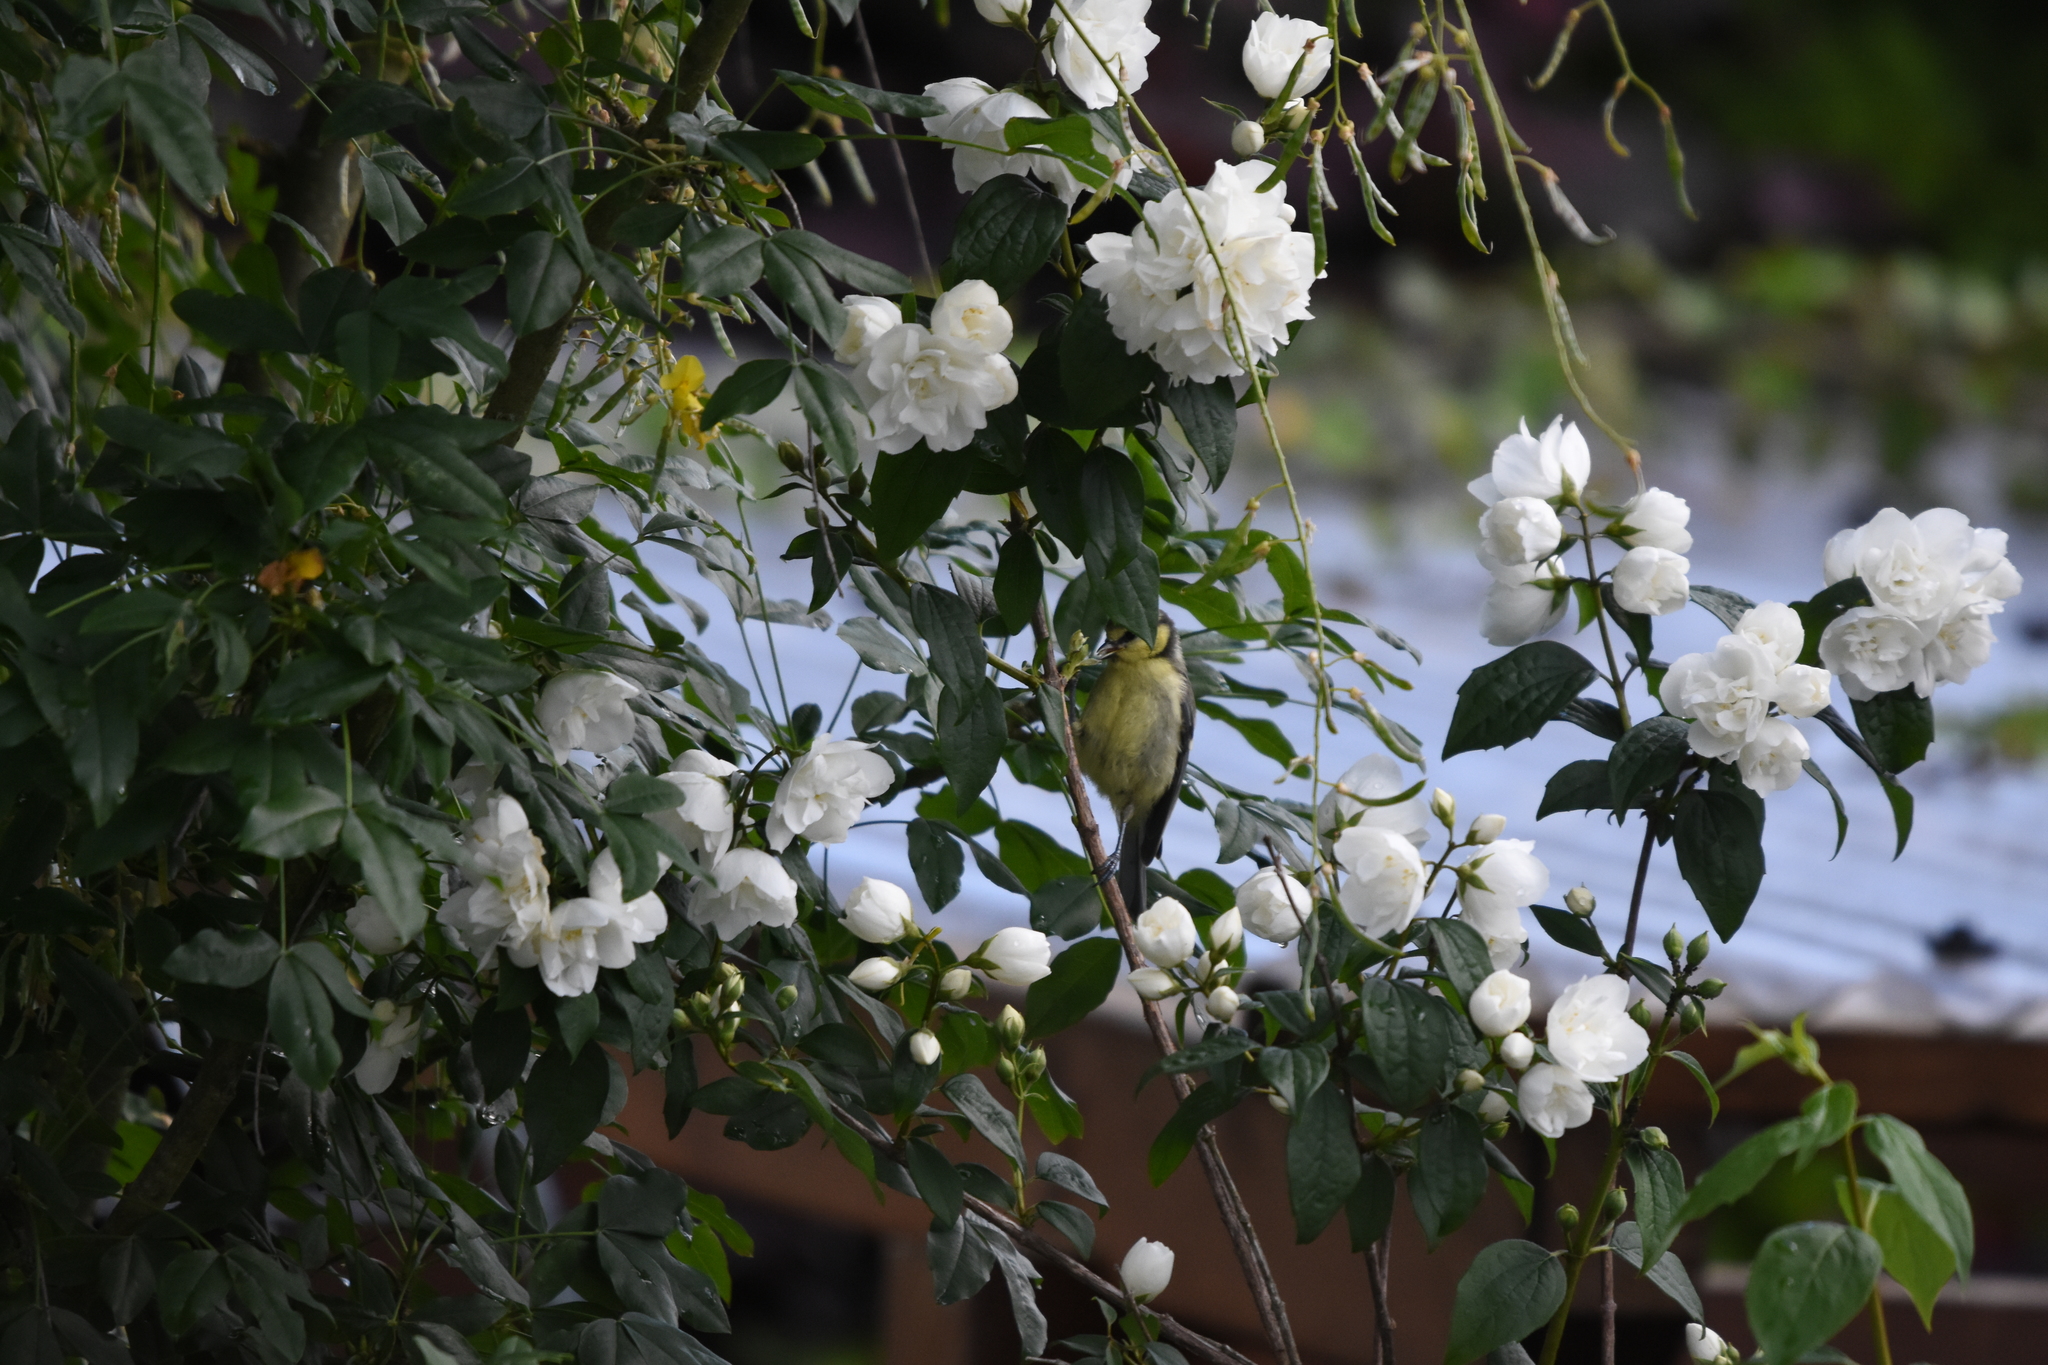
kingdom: Animalia
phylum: Chordata
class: Aves
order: Passeriformes
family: Paridae
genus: Cyanistes
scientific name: Cyanistes caeruleus
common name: Eurasian blue tit
